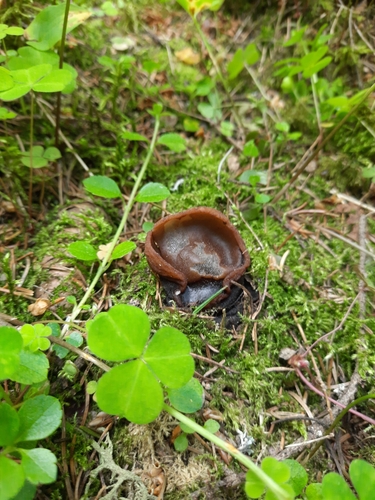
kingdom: Fungi
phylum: Ascomycota
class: Pezizomycetes
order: Pezizales
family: Sarcosomataceae
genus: Sarcosoma
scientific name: Sarcosoma globosum
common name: Charred-pancake cup
